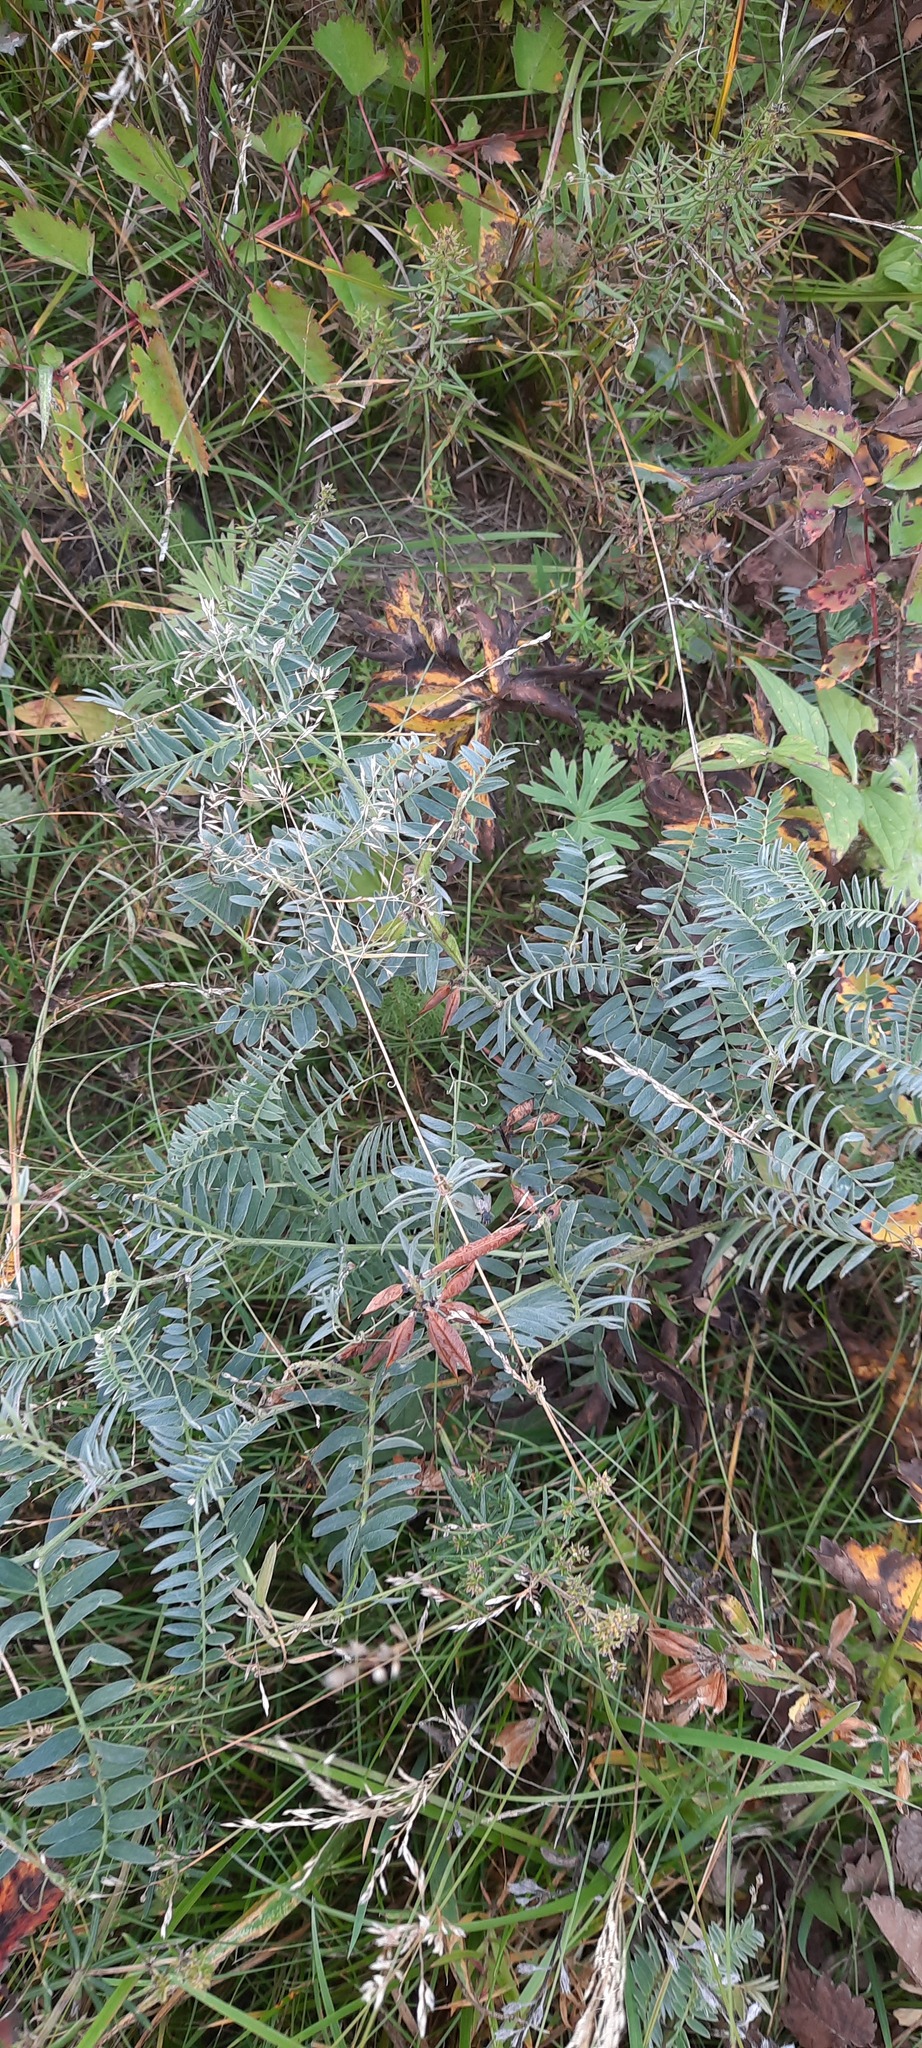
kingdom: Plantae
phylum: Tracheophyta
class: Magnoliopsida
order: Fabales
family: Fabaceae
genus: Vicia
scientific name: Vicia cracca
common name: Bird vetch
